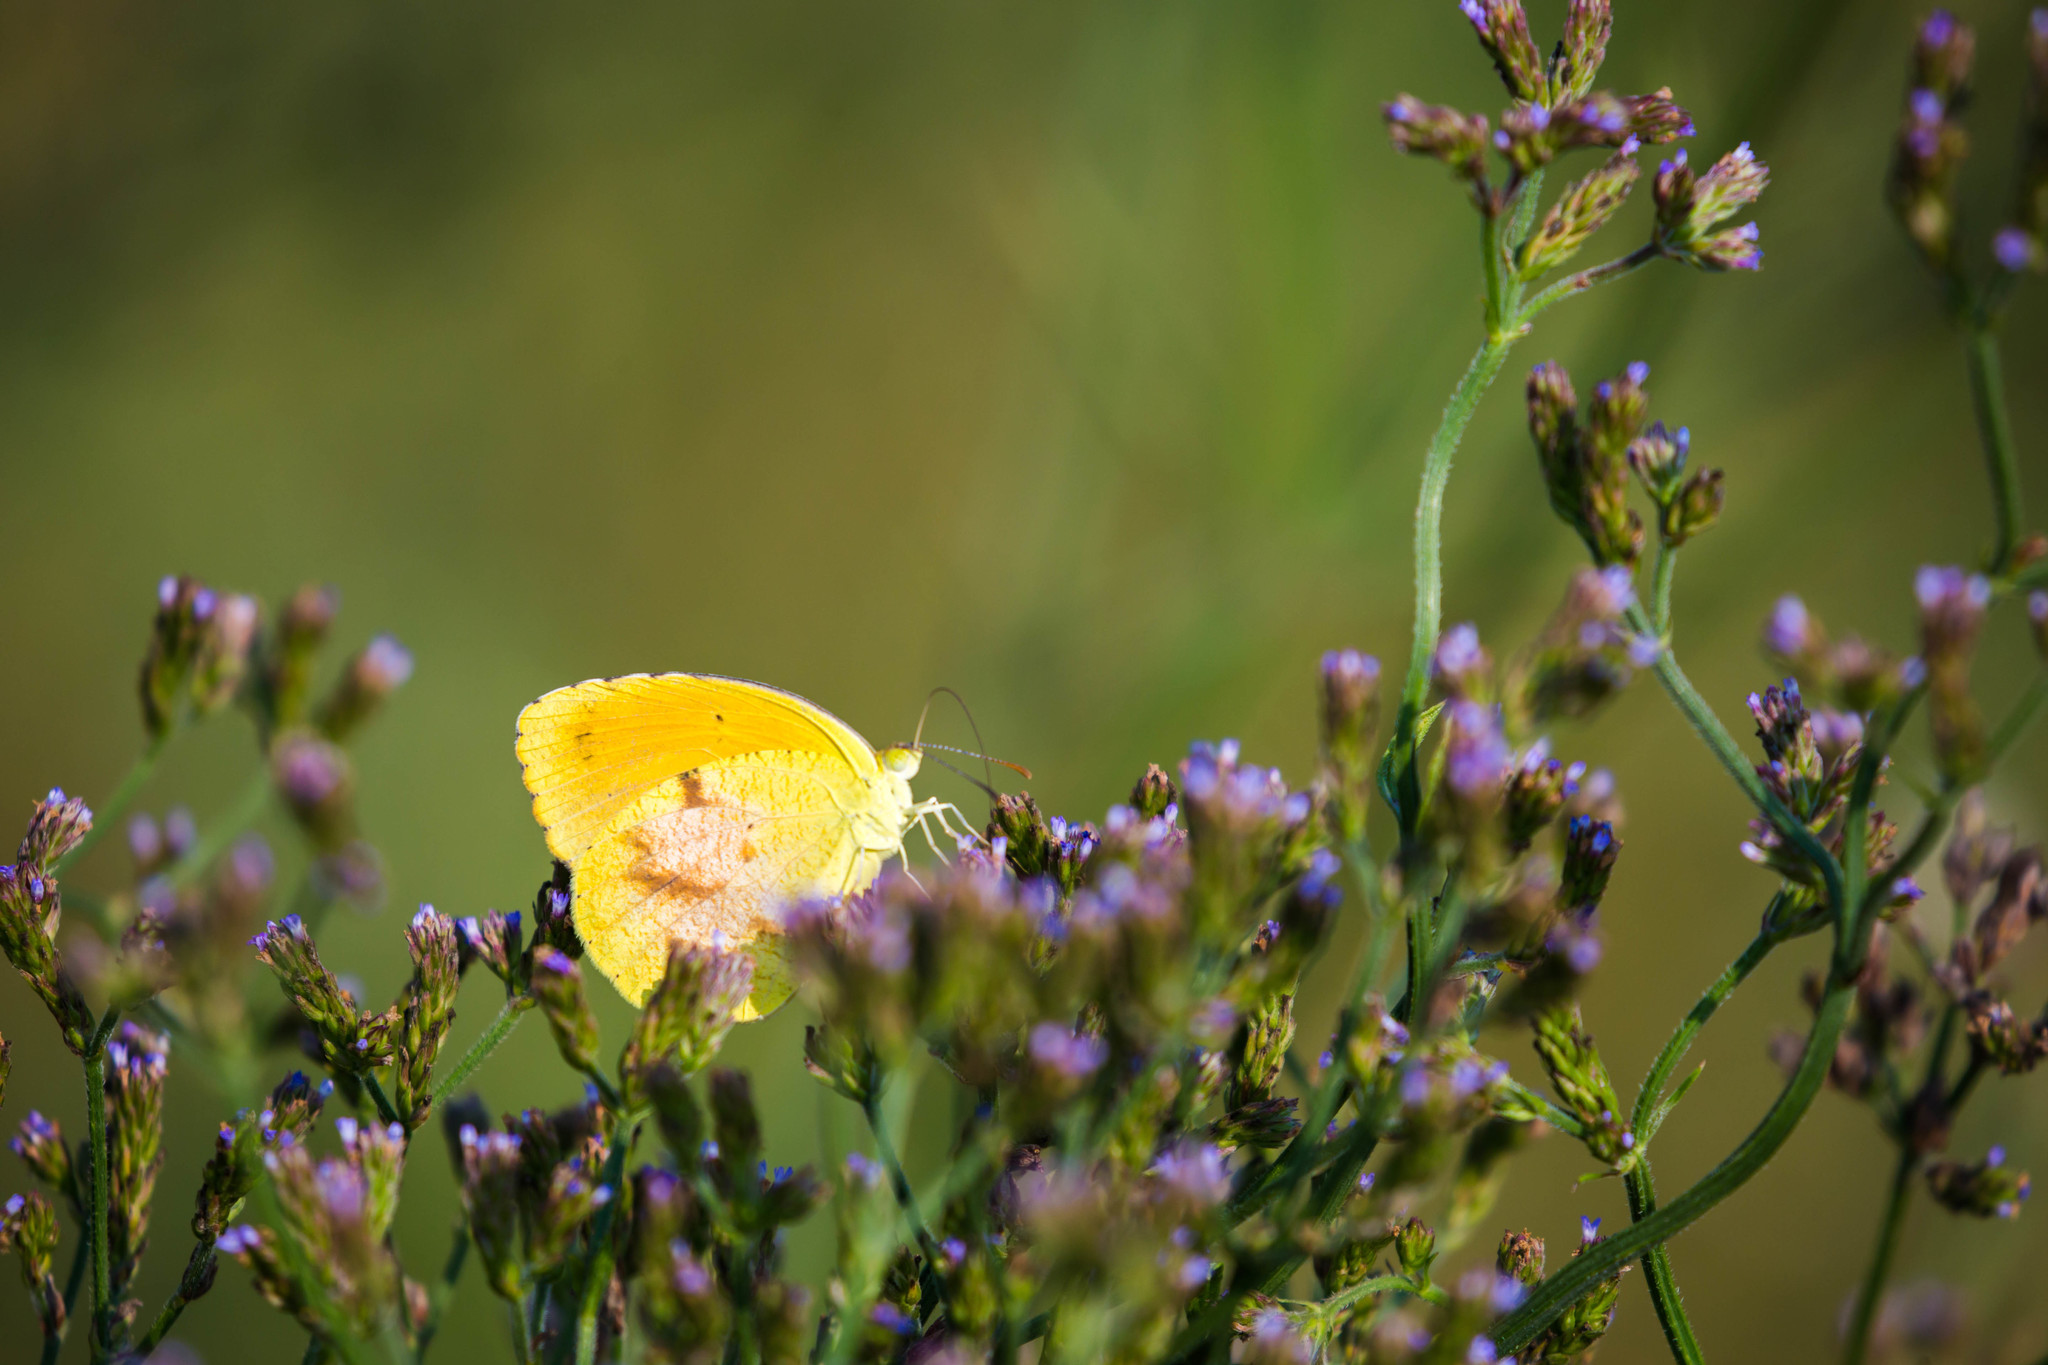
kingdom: Animalia
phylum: Arthropoda
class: Insecta
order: Lepidoptera
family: Pieridae
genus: Abaeis
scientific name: Abaeis nicippe
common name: Sleepy orange
